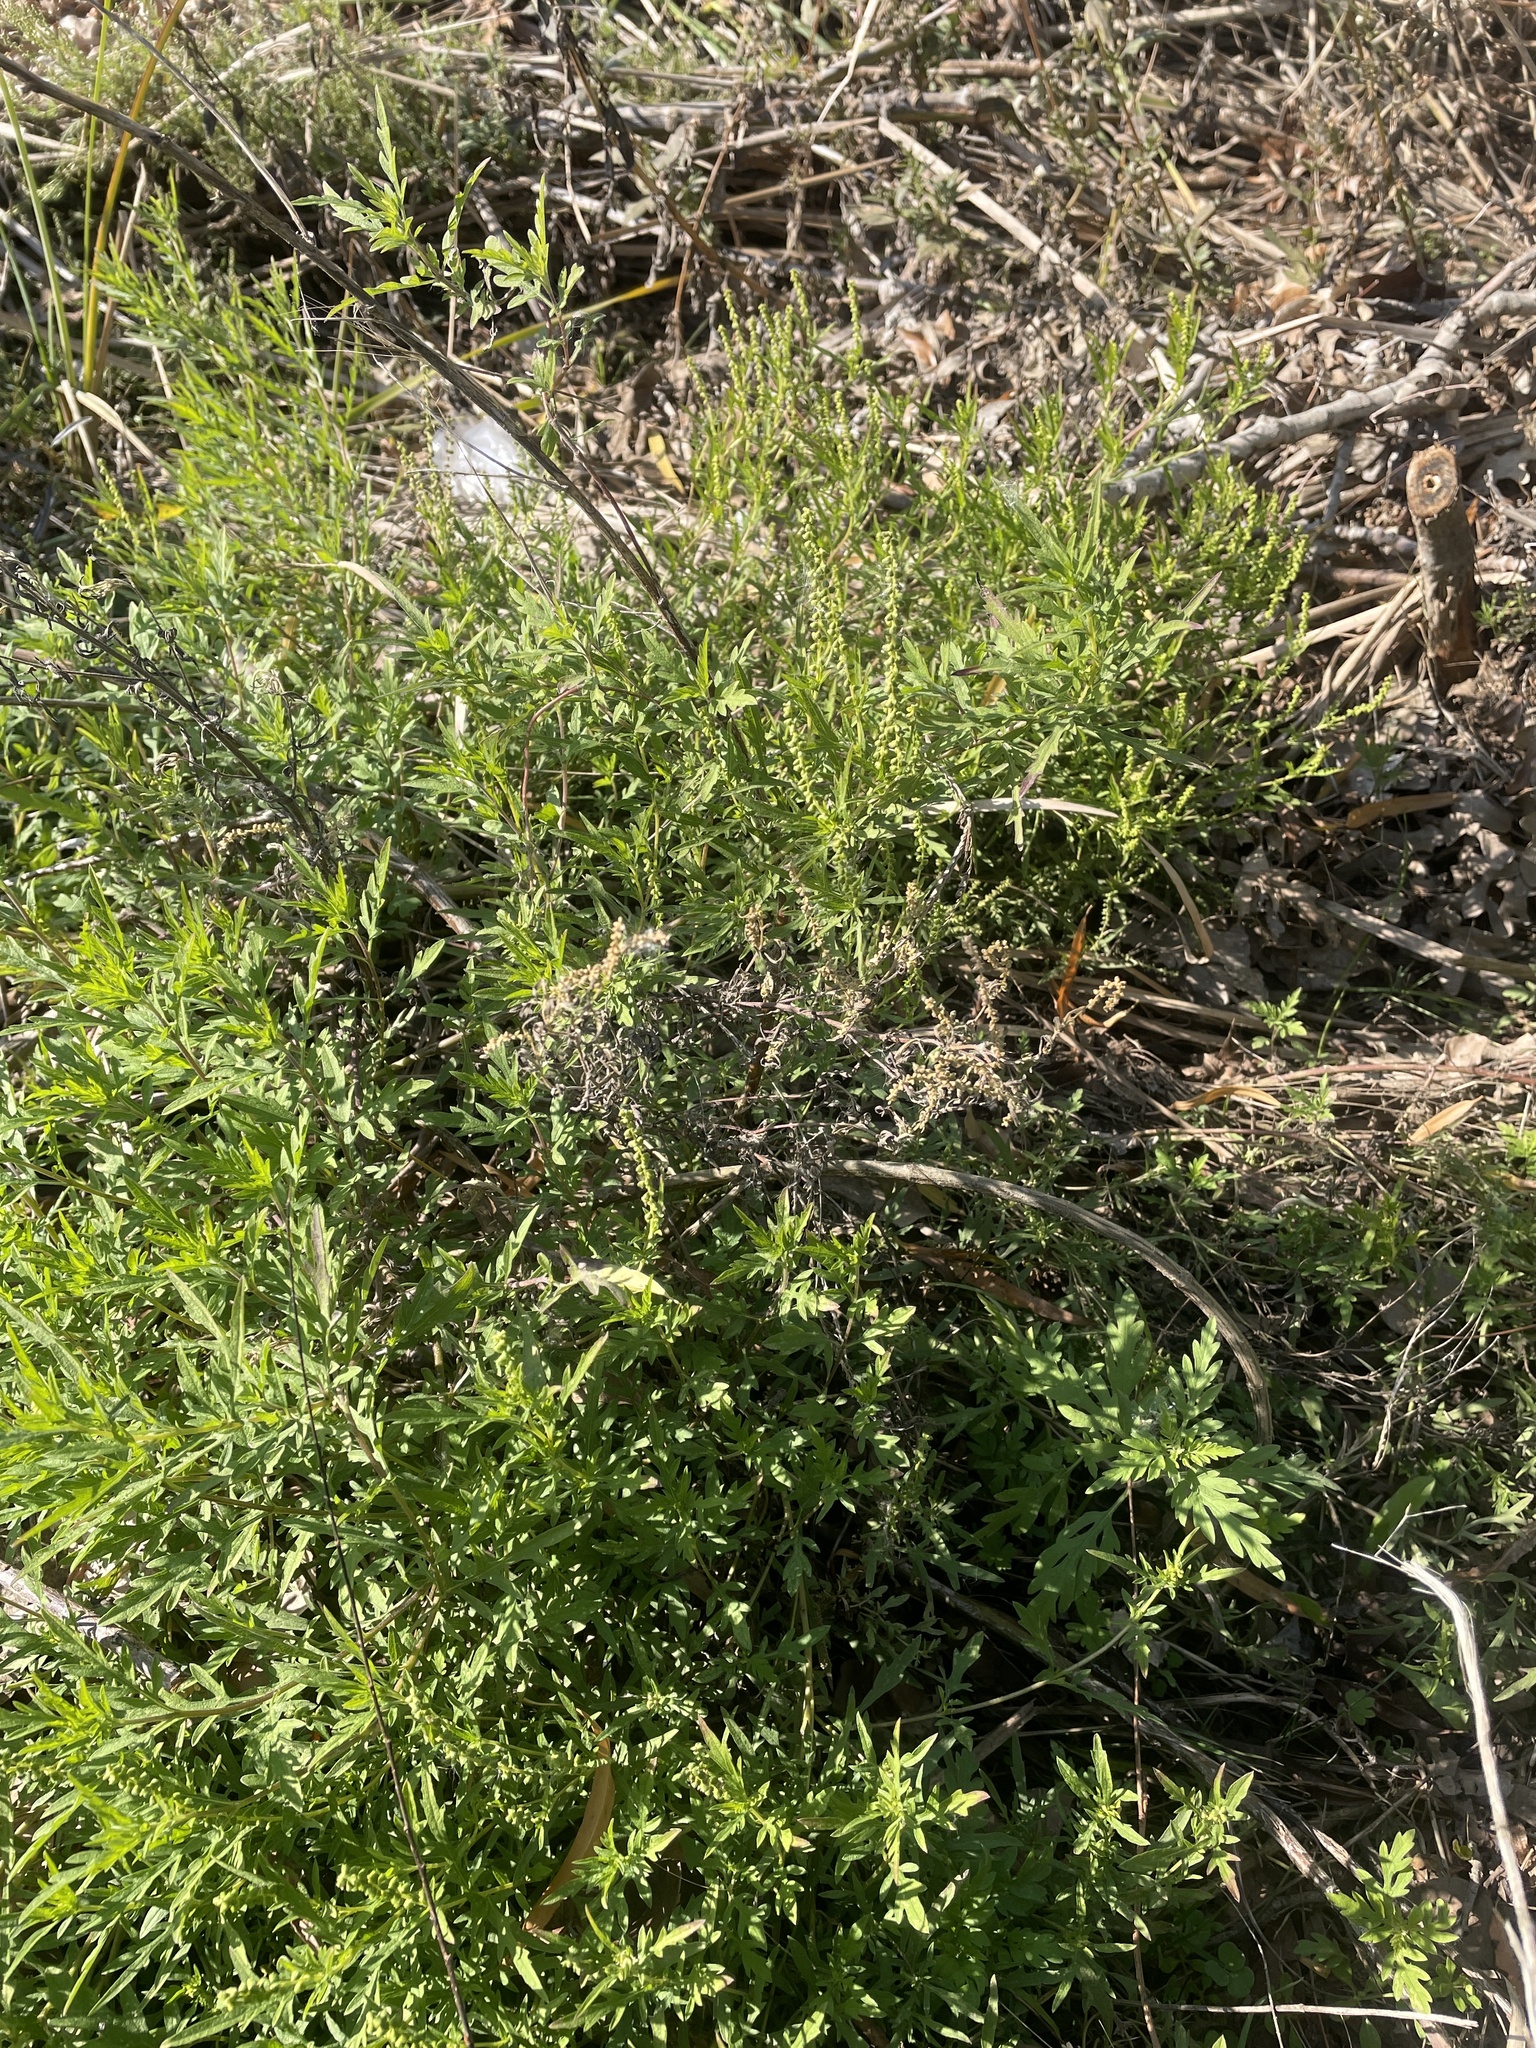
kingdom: Plantae
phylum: Tracheophyta
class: Magnoliopsida
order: Asterales
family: Asteraceae
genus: Ambrosia
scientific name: Ambrosia psilostachya
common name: Perennial ragweed
